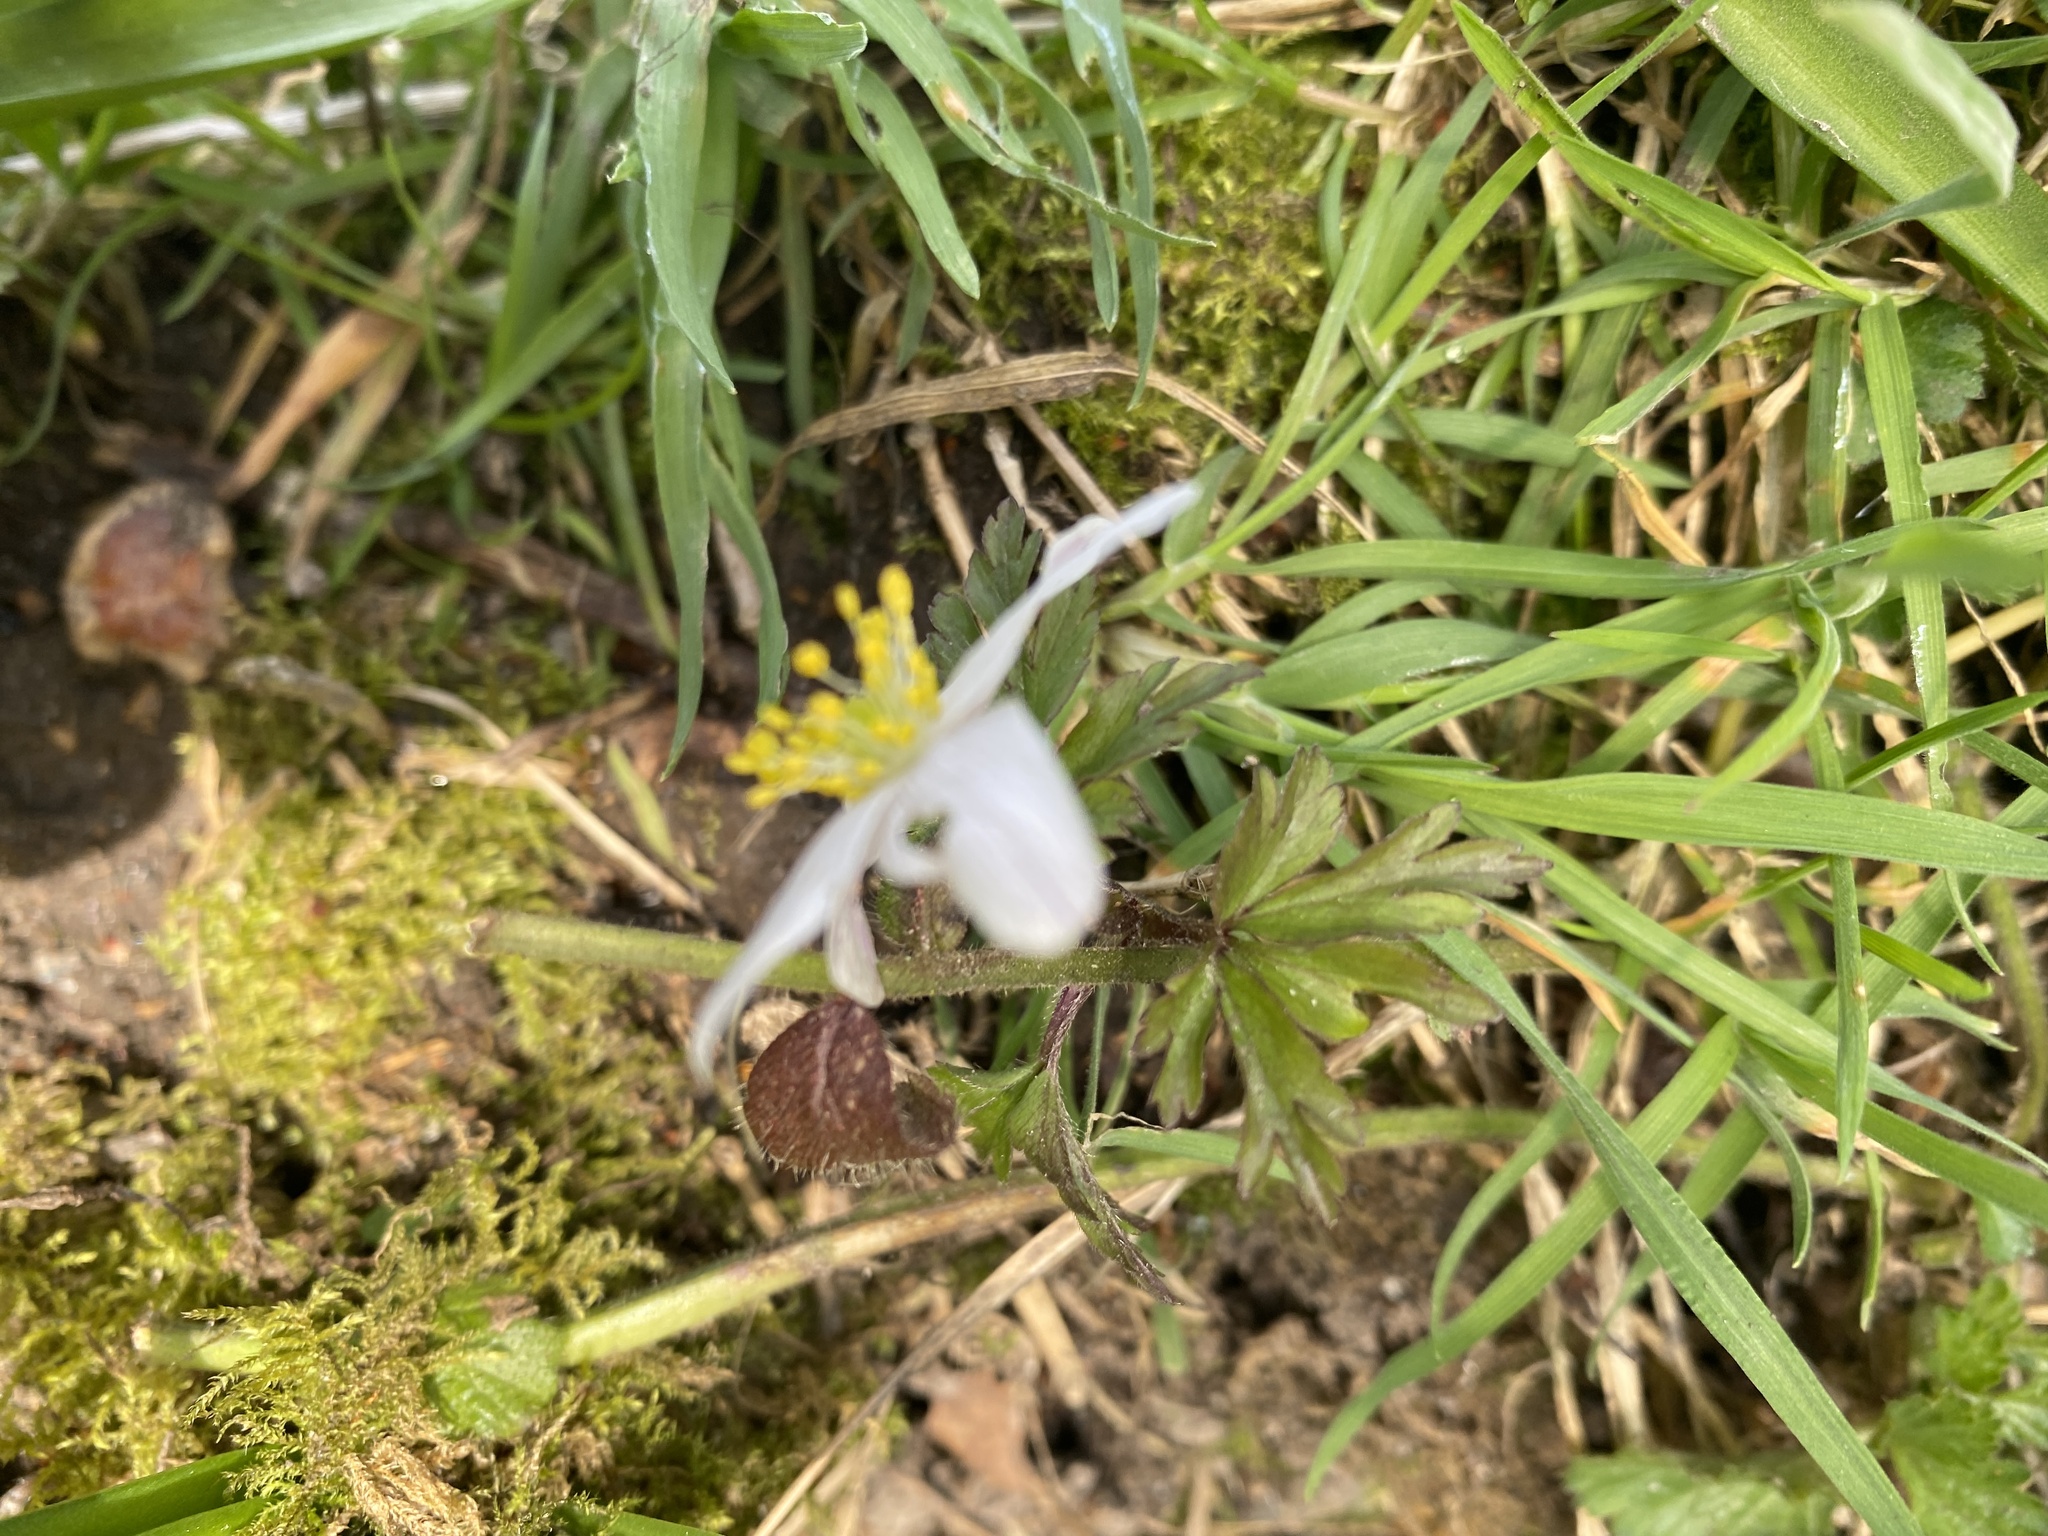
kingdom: Plantae
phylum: Tracheophyta
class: Magnoliopsida
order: Ranunculales
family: Ranunculaceae
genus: Anemone
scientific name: Anemone nemorosa
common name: Wood anemone
